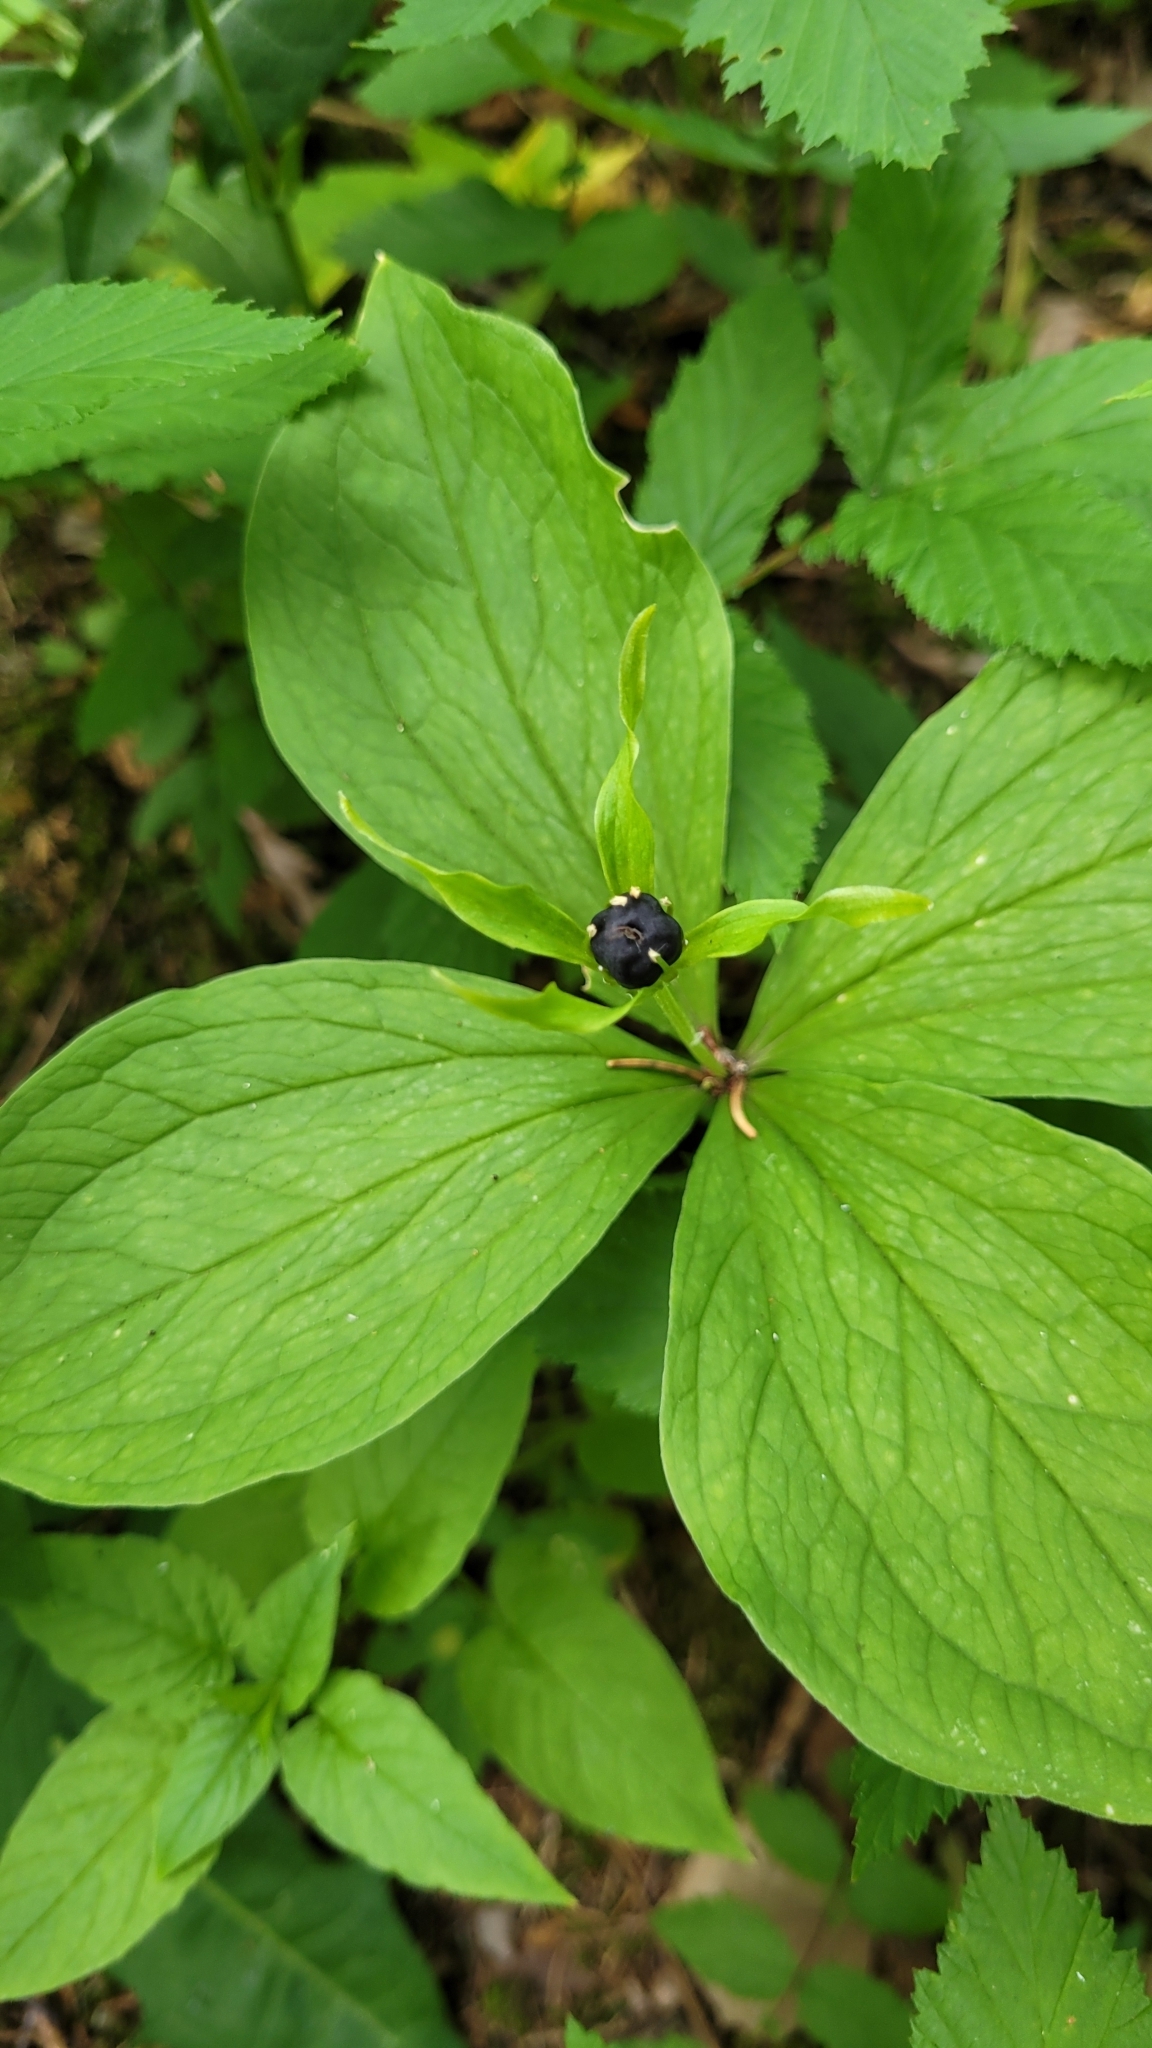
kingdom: Plantae
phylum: Tracheophyta
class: Liliopsida
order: Liliales
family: Melanthiaceae
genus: Paris
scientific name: Paris quadrifolia
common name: Herb-paris
